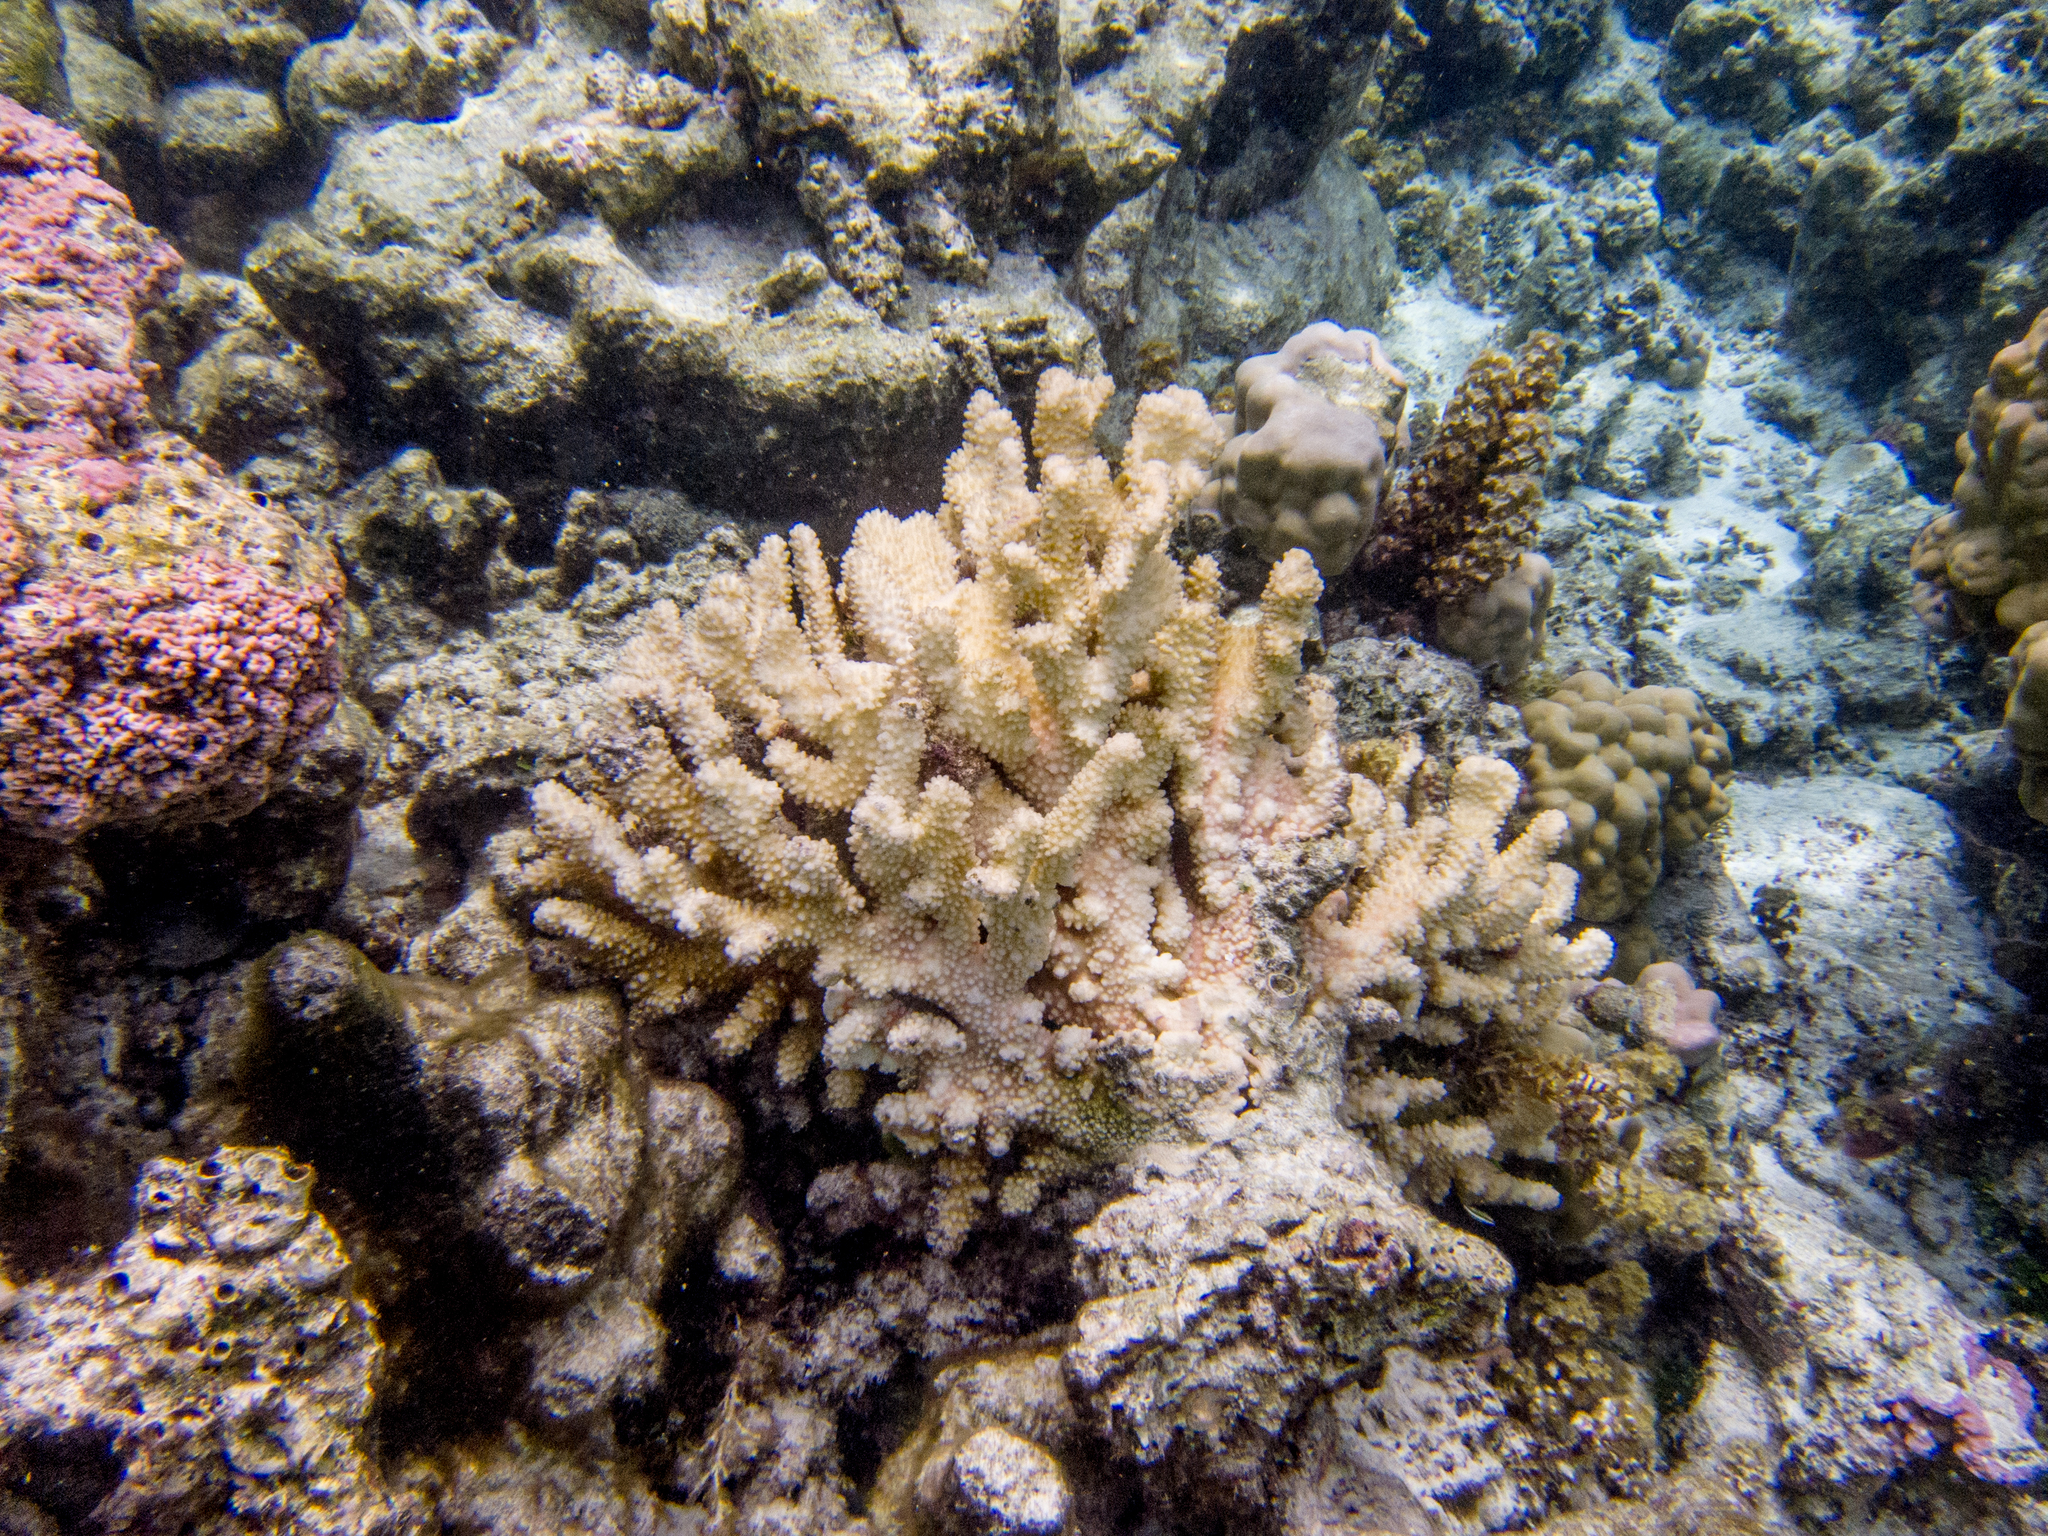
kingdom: Animalia
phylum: Cnidaria
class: Anthozoa
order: Scleractinia
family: Pocilloporidae
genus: Pocillopora
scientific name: Pocillopora grandis
